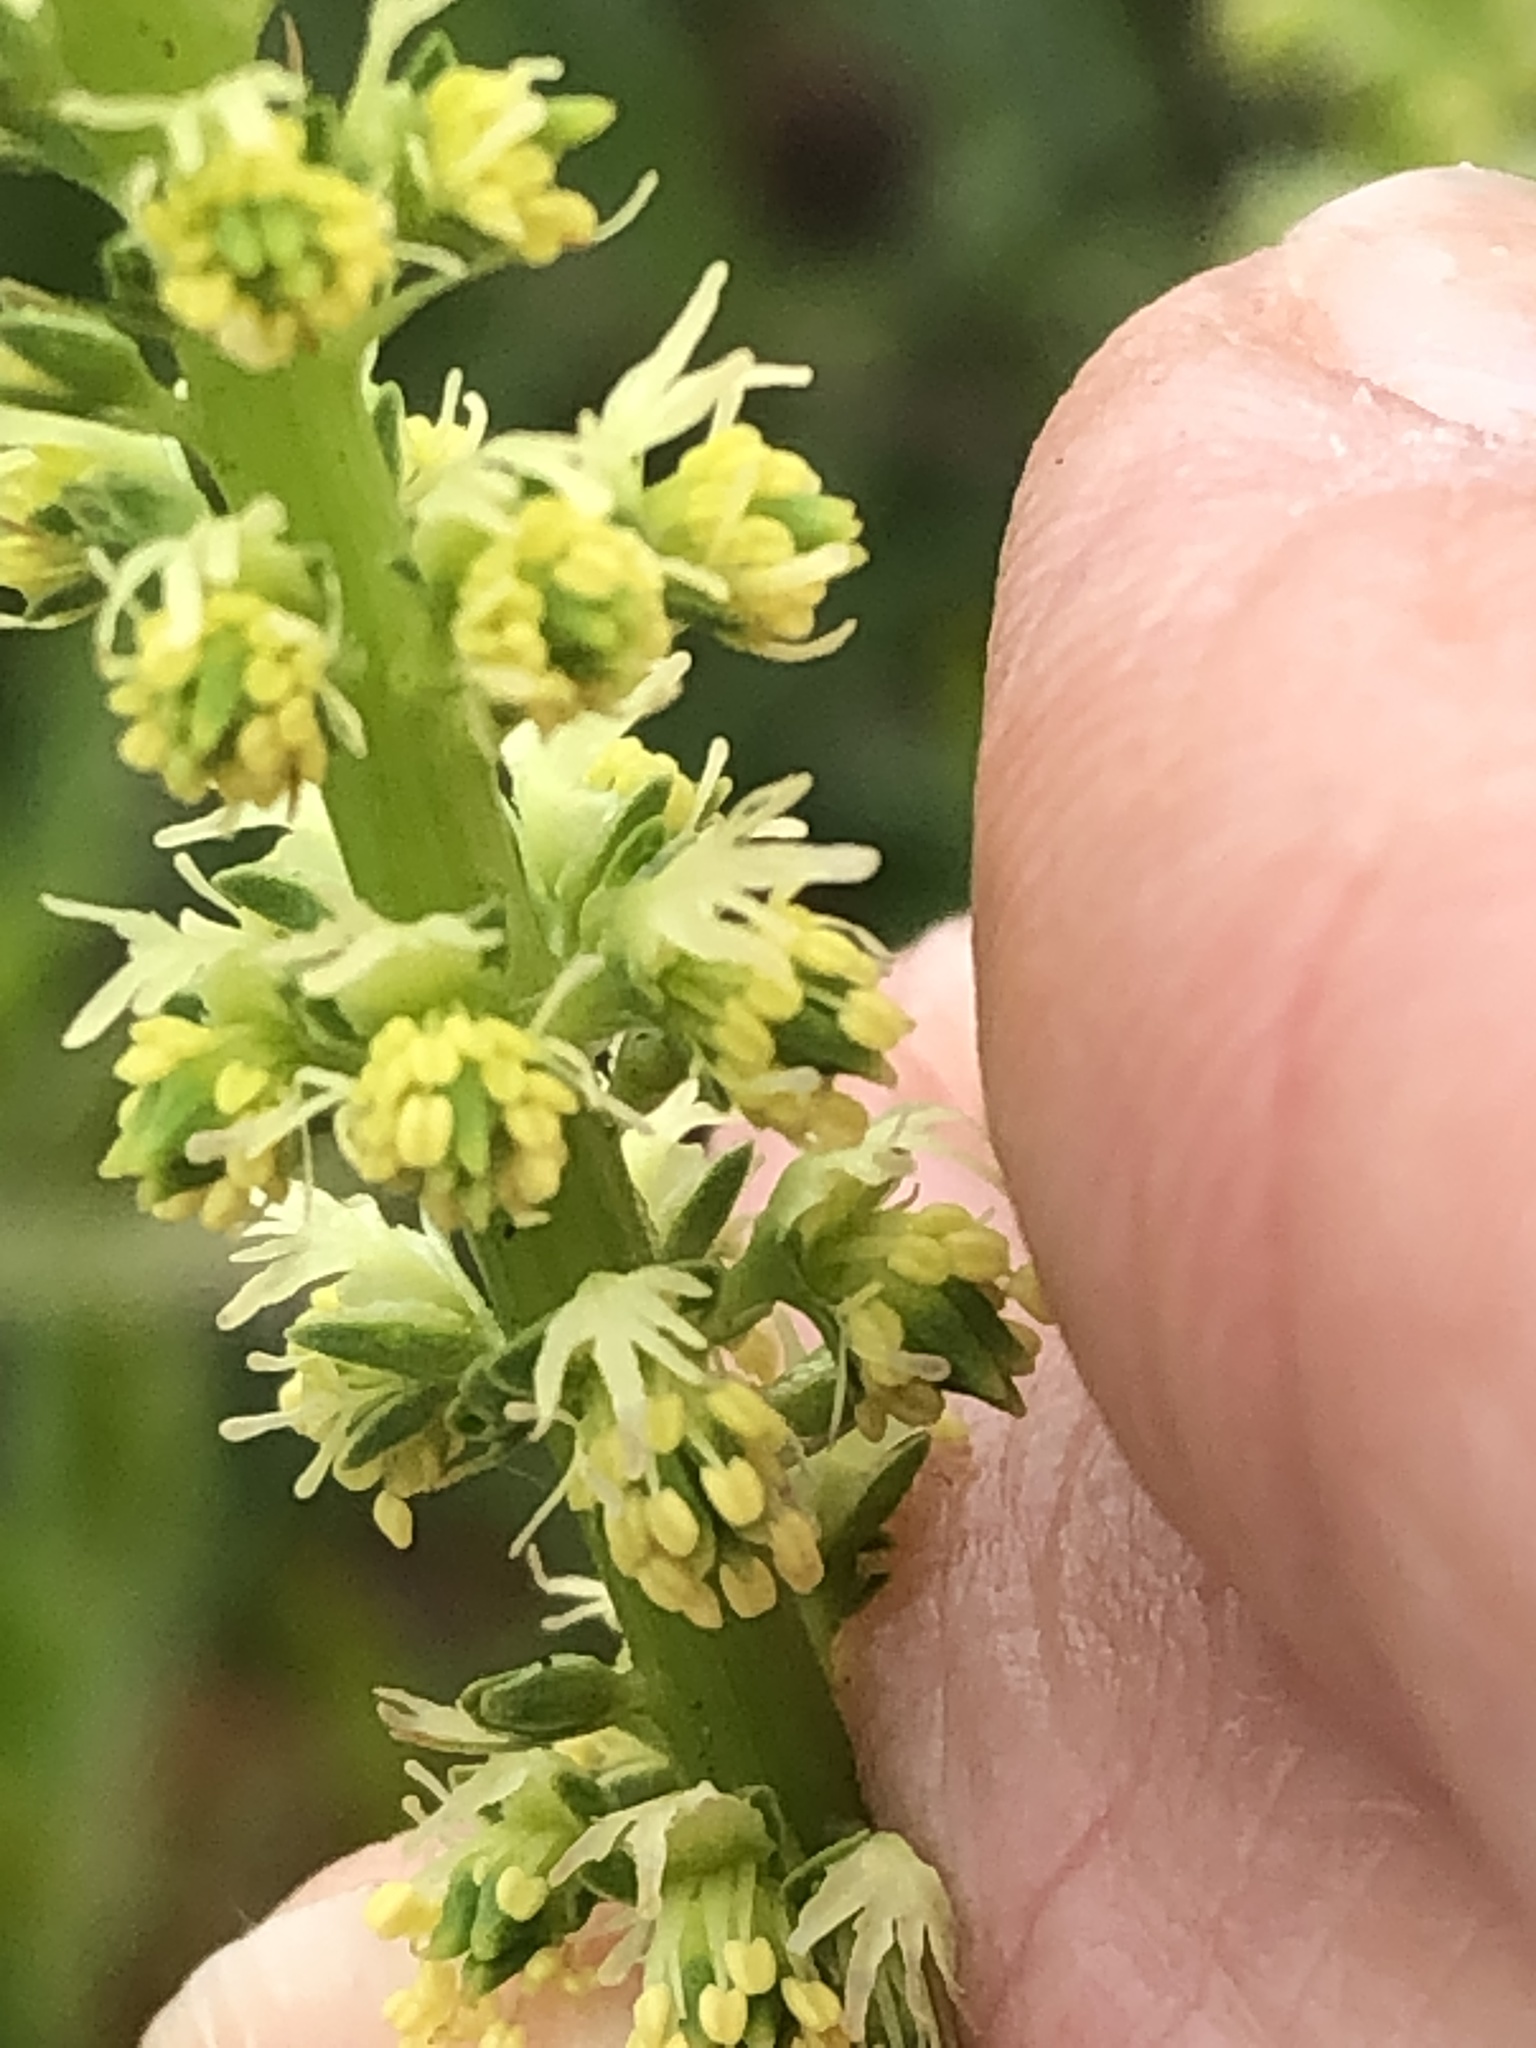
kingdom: Plantae
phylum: Tracheophyta
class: Magnoliopsida
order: Brassicales
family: Resedaceae
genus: Reseda
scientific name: Reseda luteola
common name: Weld
